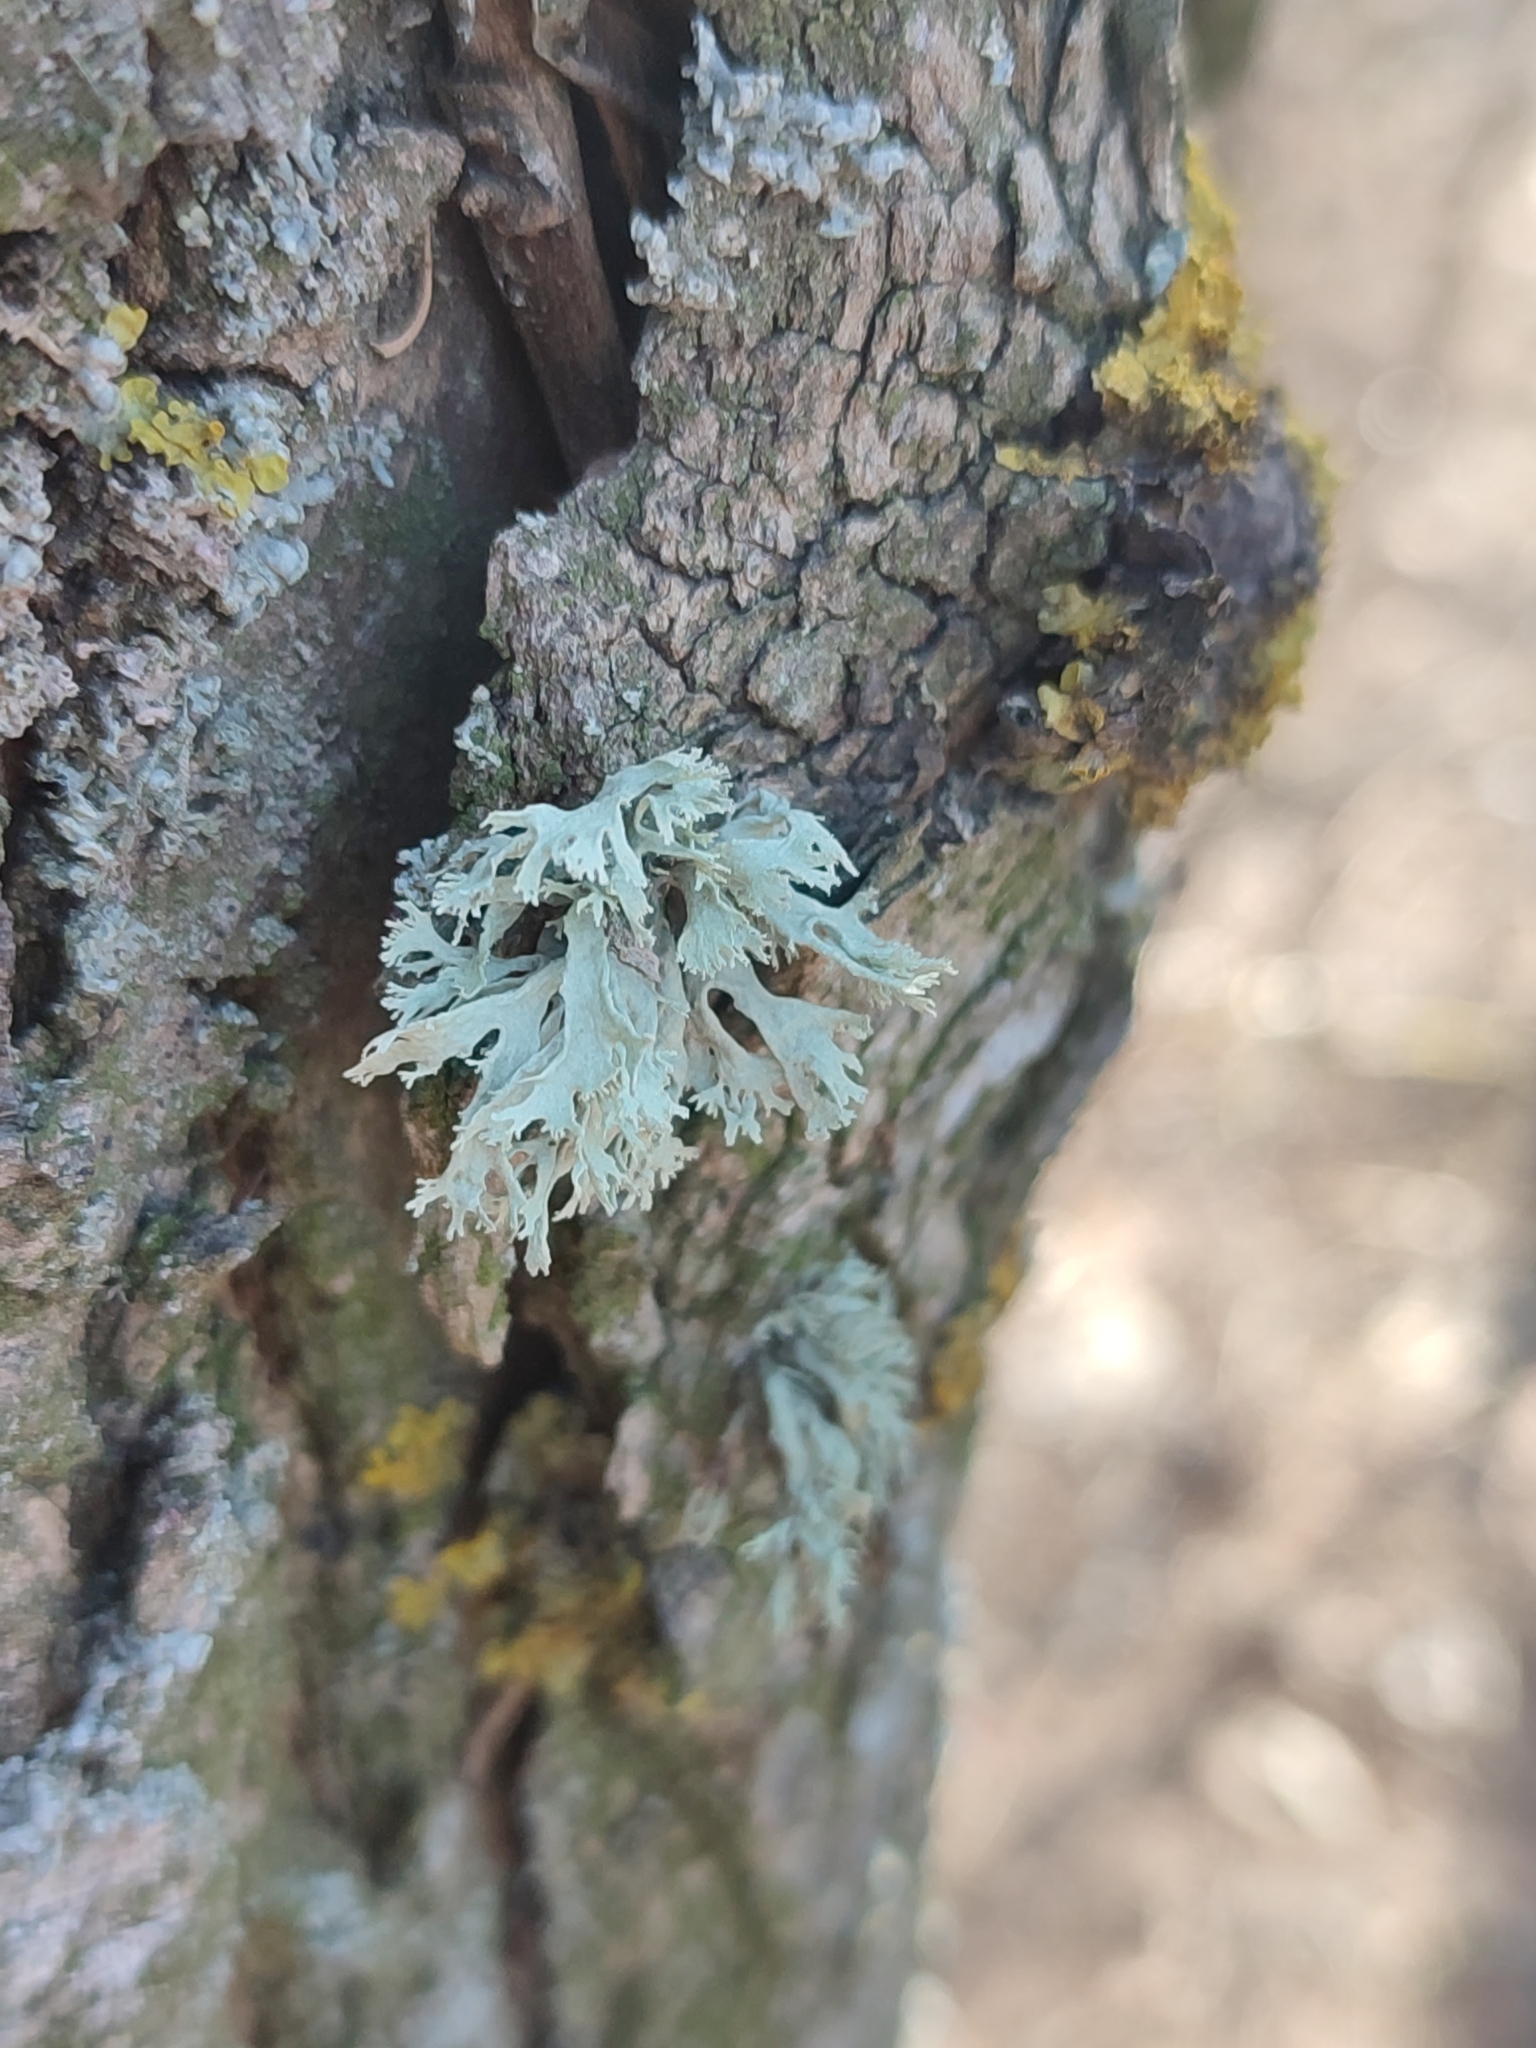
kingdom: Fungi
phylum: Ascomycota
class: Lecanoromycetes
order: Lecanorales
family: Parmeliaceae
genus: Evernia
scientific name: Evernia prunastri
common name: Oak moss
